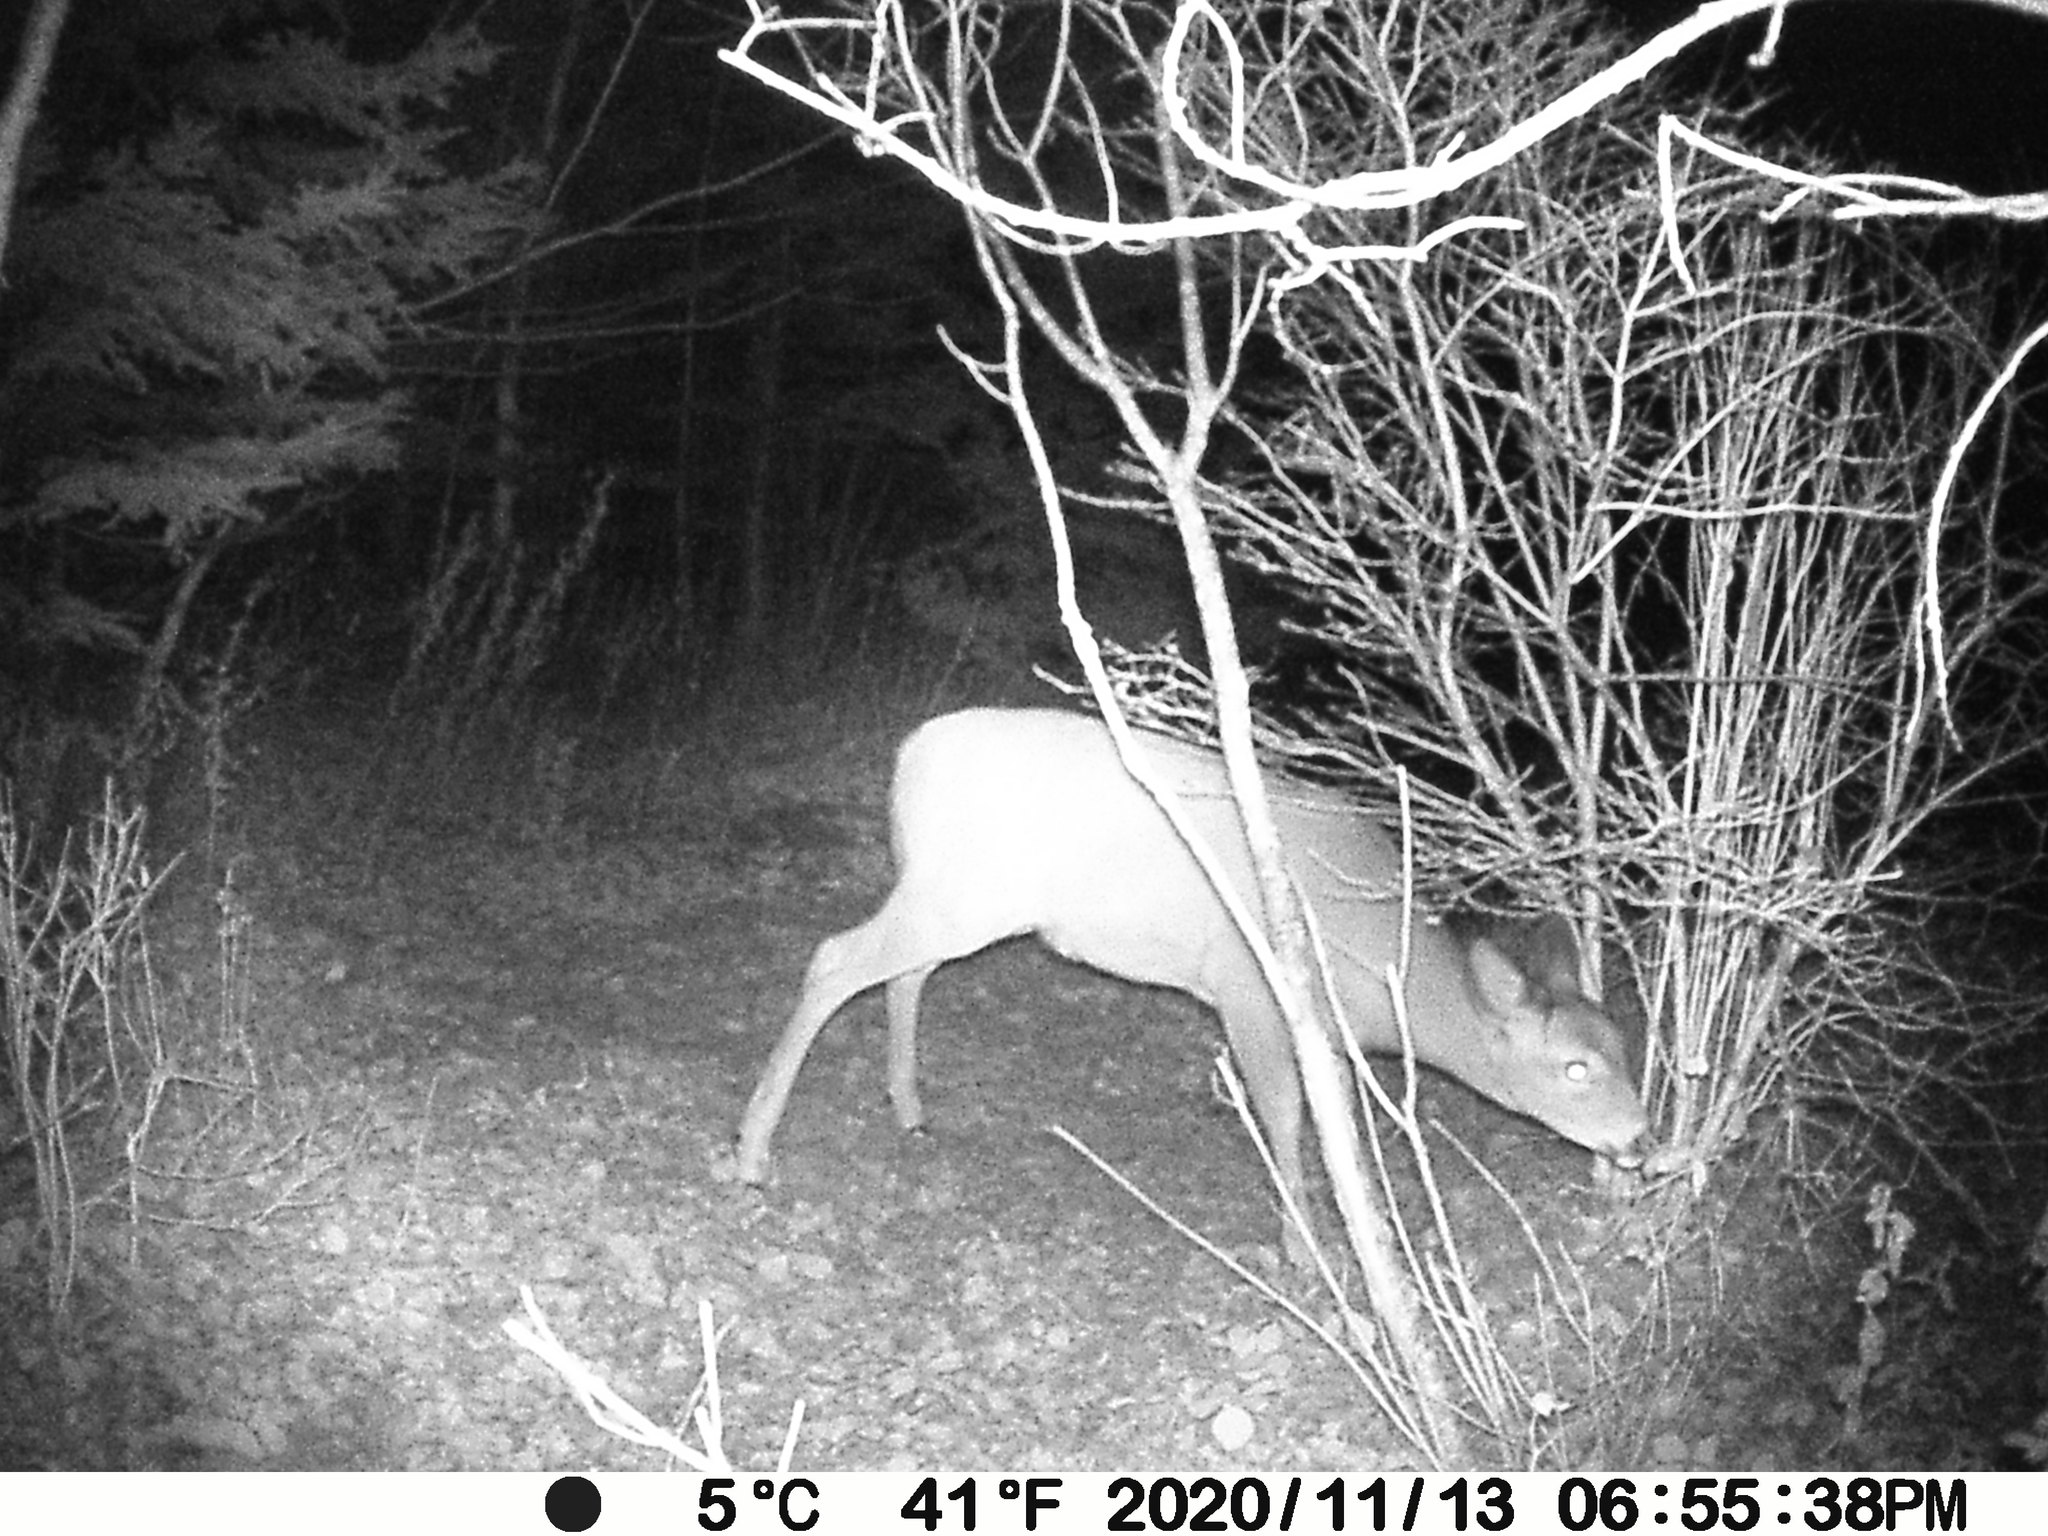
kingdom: Animalia
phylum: Chordata
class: Mammalia
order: Artiodactyla
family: Cervidae
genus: Odocoileus
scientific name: Odocoileus virginianus
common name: White-tailed deer
